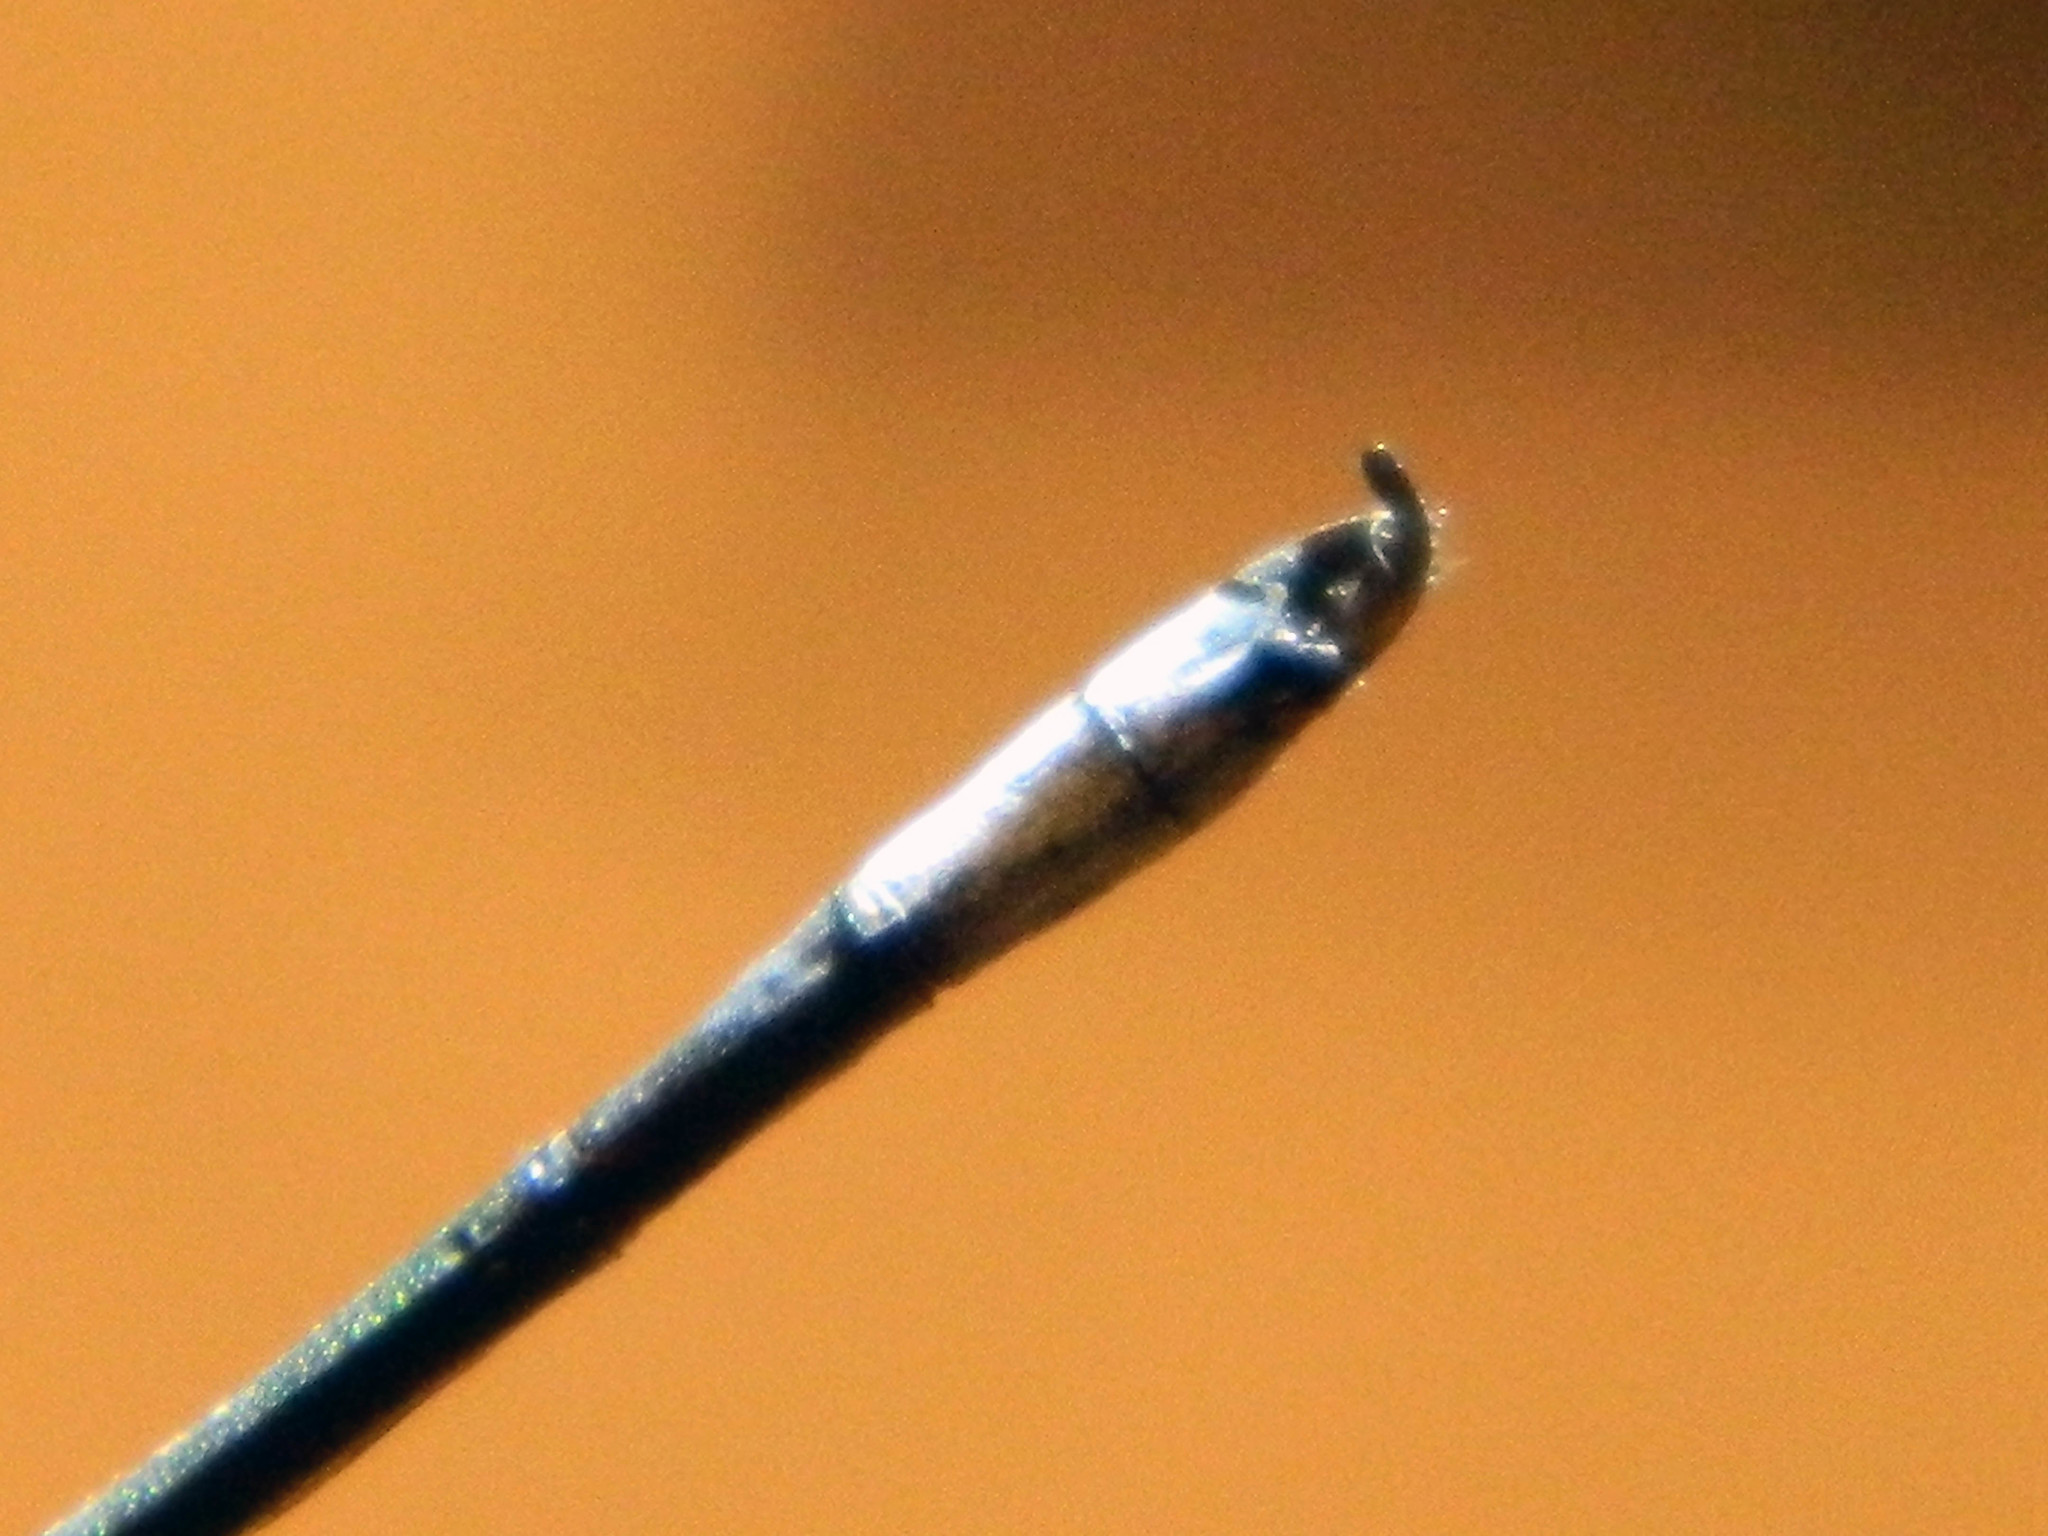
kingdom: Animalia
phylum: Arthropoda
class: Insecta
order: Odonata
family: Lestidae
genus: Lestes
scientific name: Lestes disjunctus
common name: Northern spreadwing
